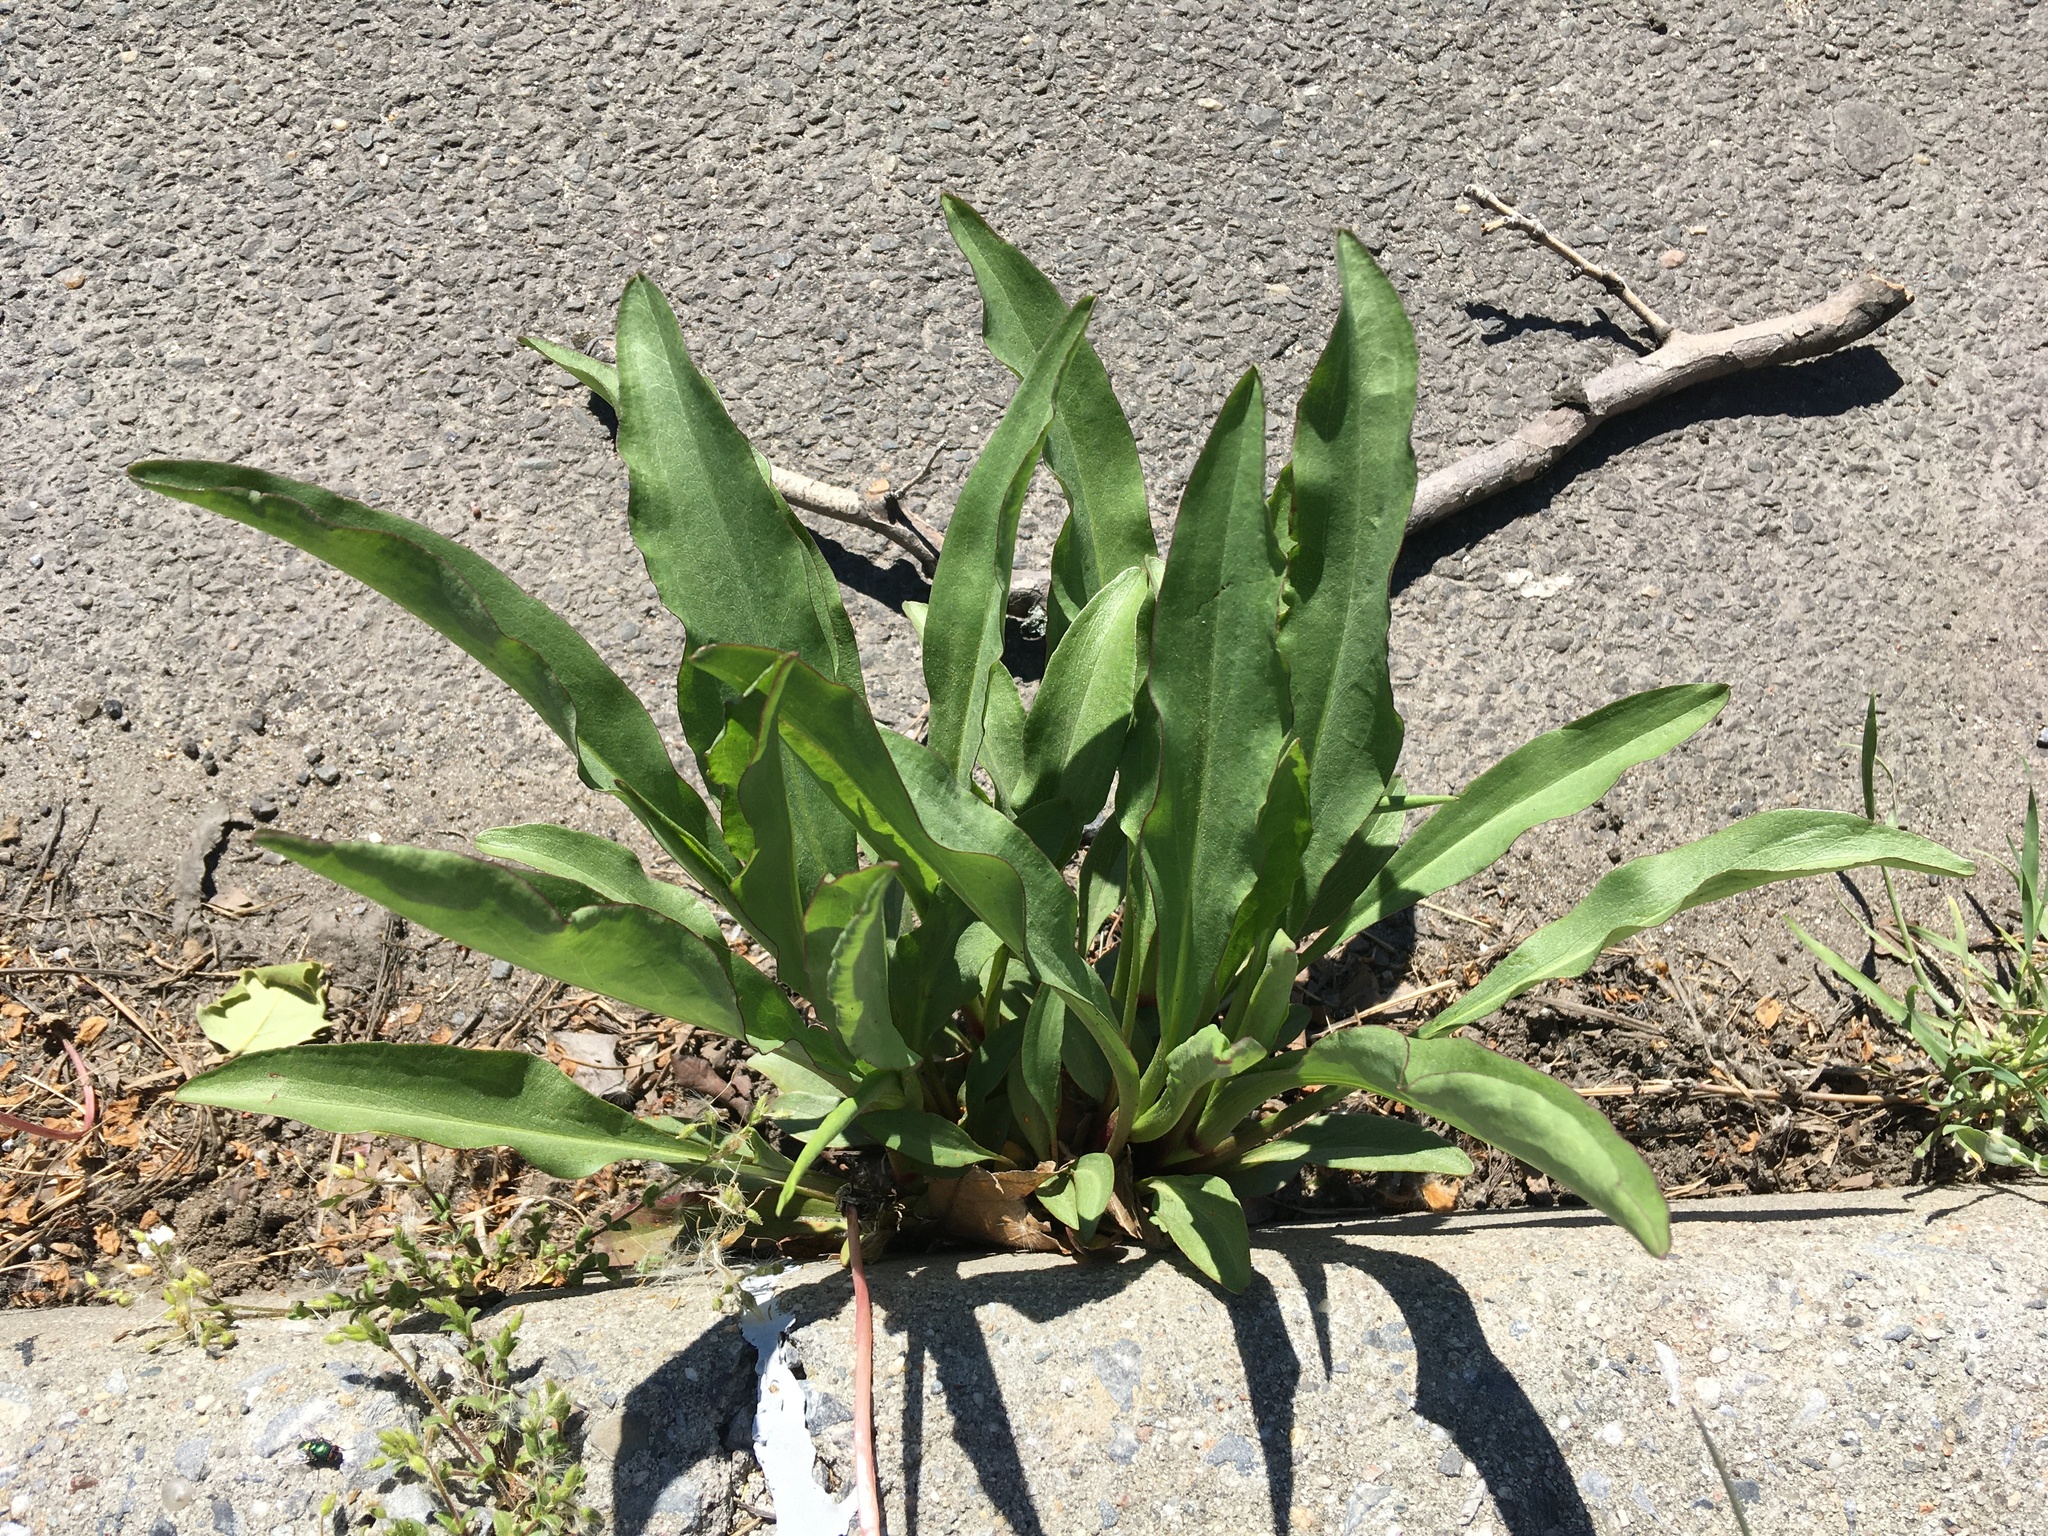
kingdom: Plantae
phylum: Tracheophyta
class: Magnoliopsida
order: Asterales
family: Asteraceae
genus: Solidago
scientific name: Solidago sempervirens
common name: Salt-marsh goldenrod
